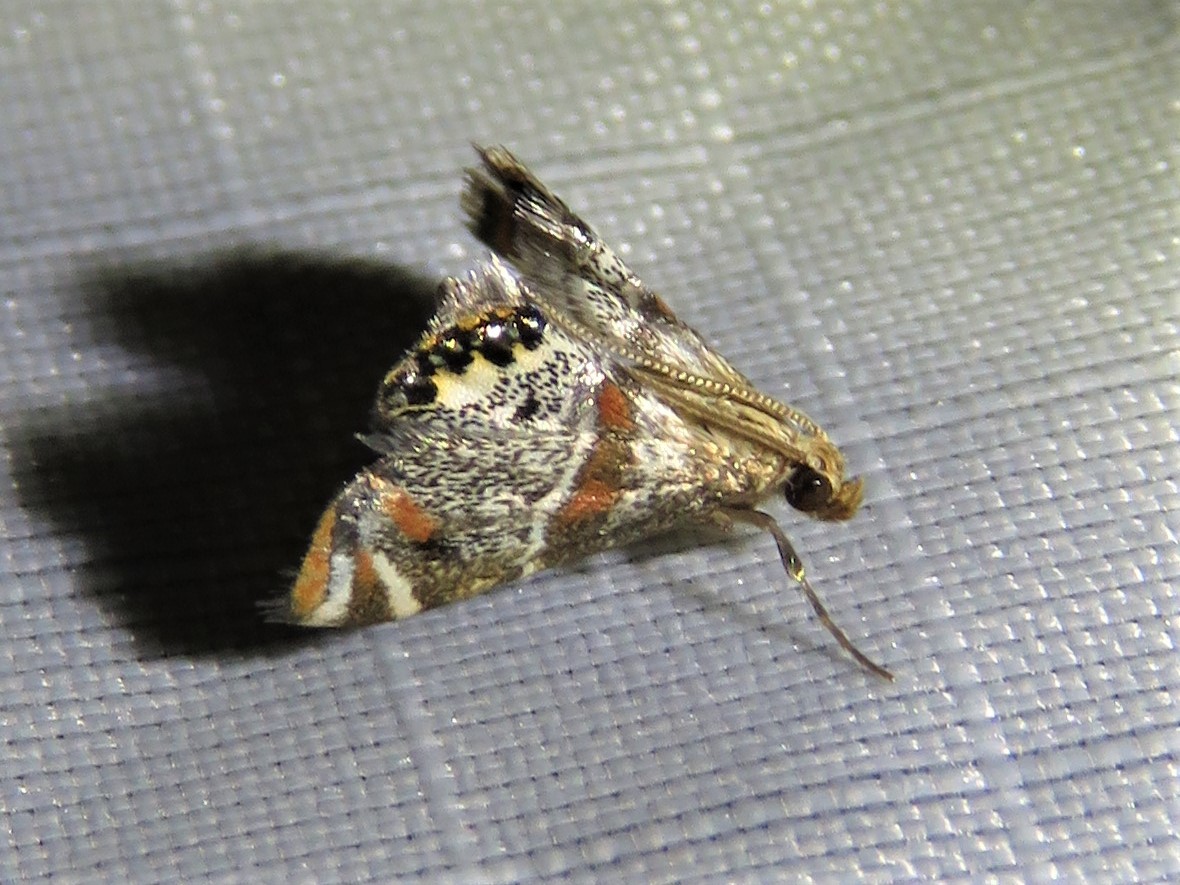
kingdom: Animalia
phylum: Arthropoda
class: Insecta
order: Lepidoptera
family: Crambidae
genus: Petrophila
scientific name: Petrophila jaliscalis
